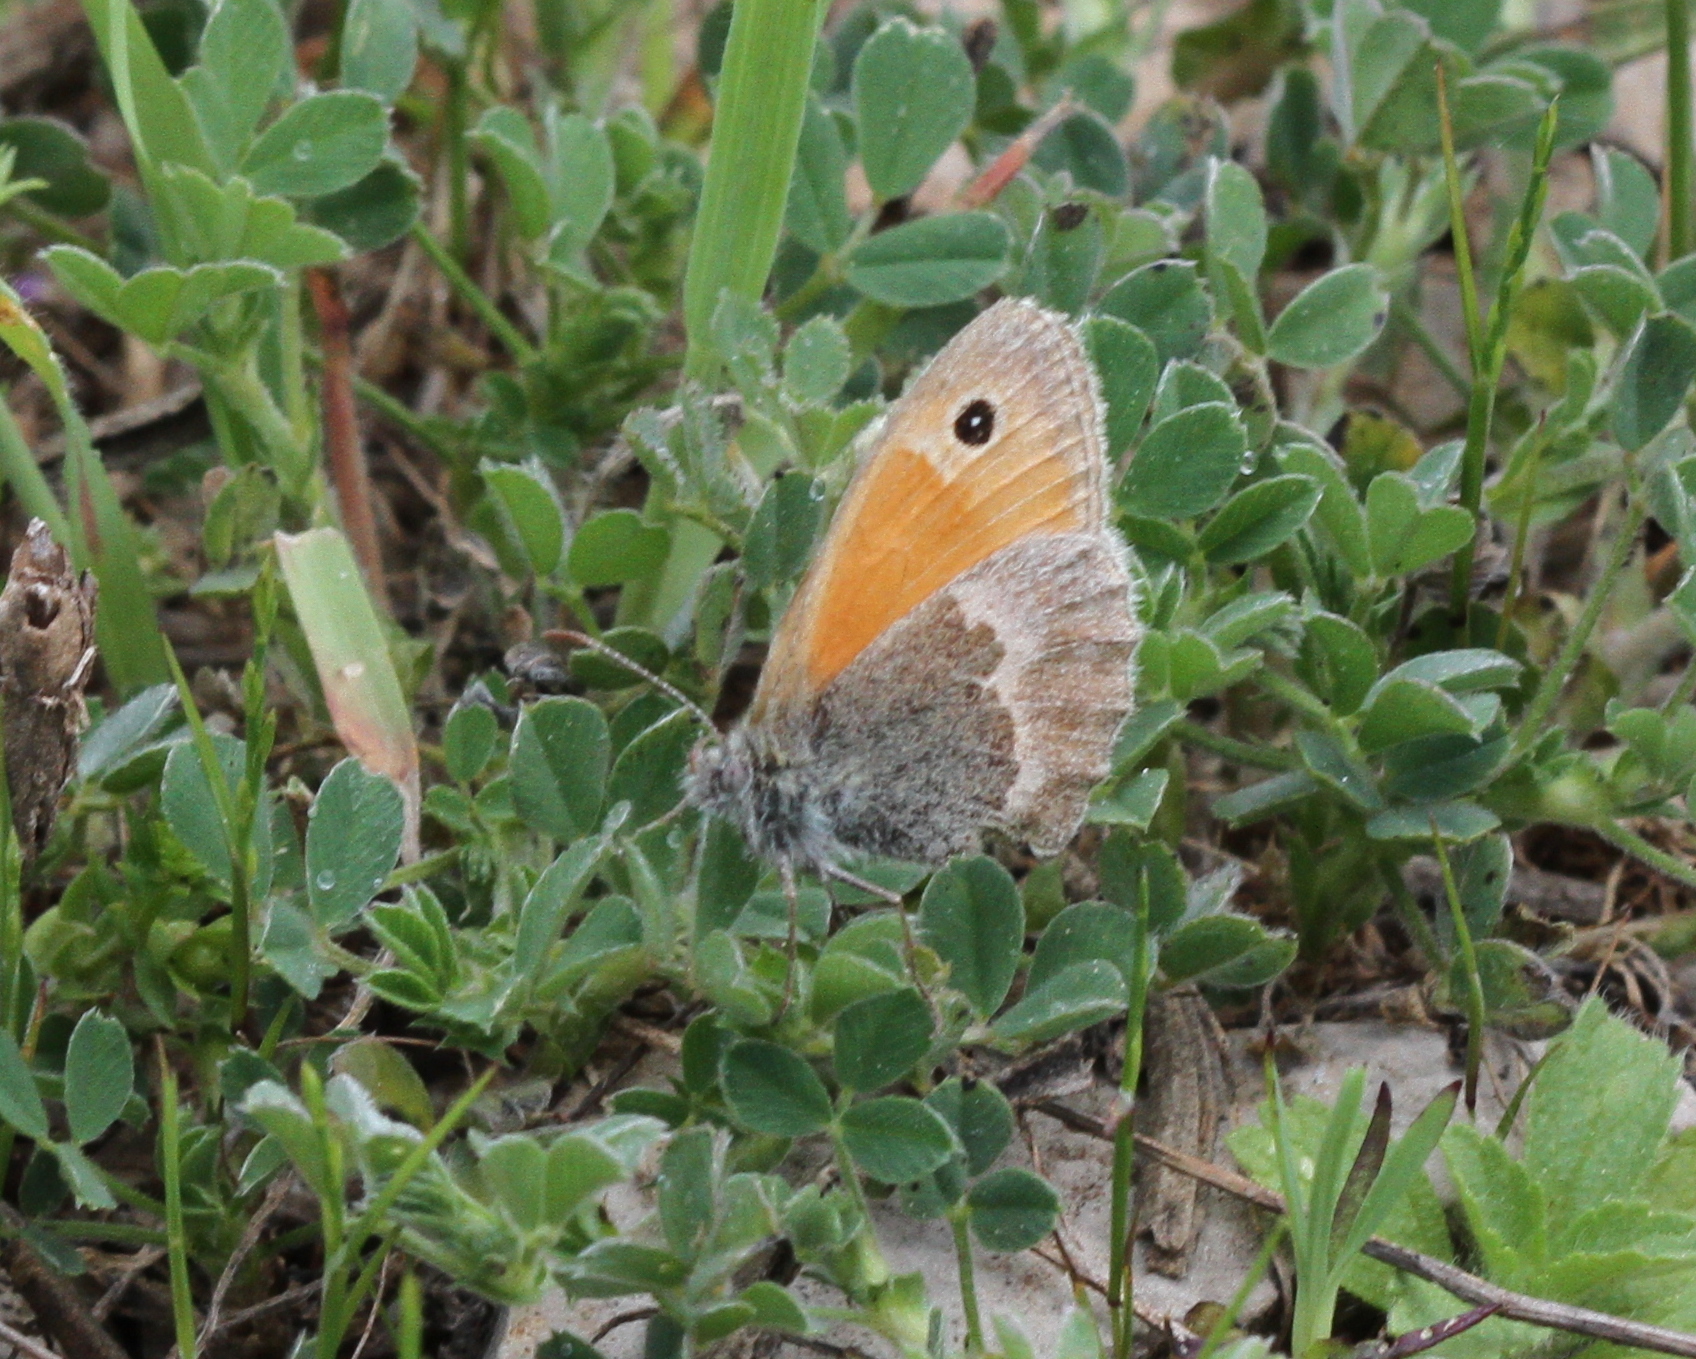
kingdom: Animalia
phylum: Arthropoda
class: Insecta
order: Lepidoptera
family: Nymphalidae
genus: Coenonympha
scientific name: Coenonympha pamphilus
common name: Small heath
